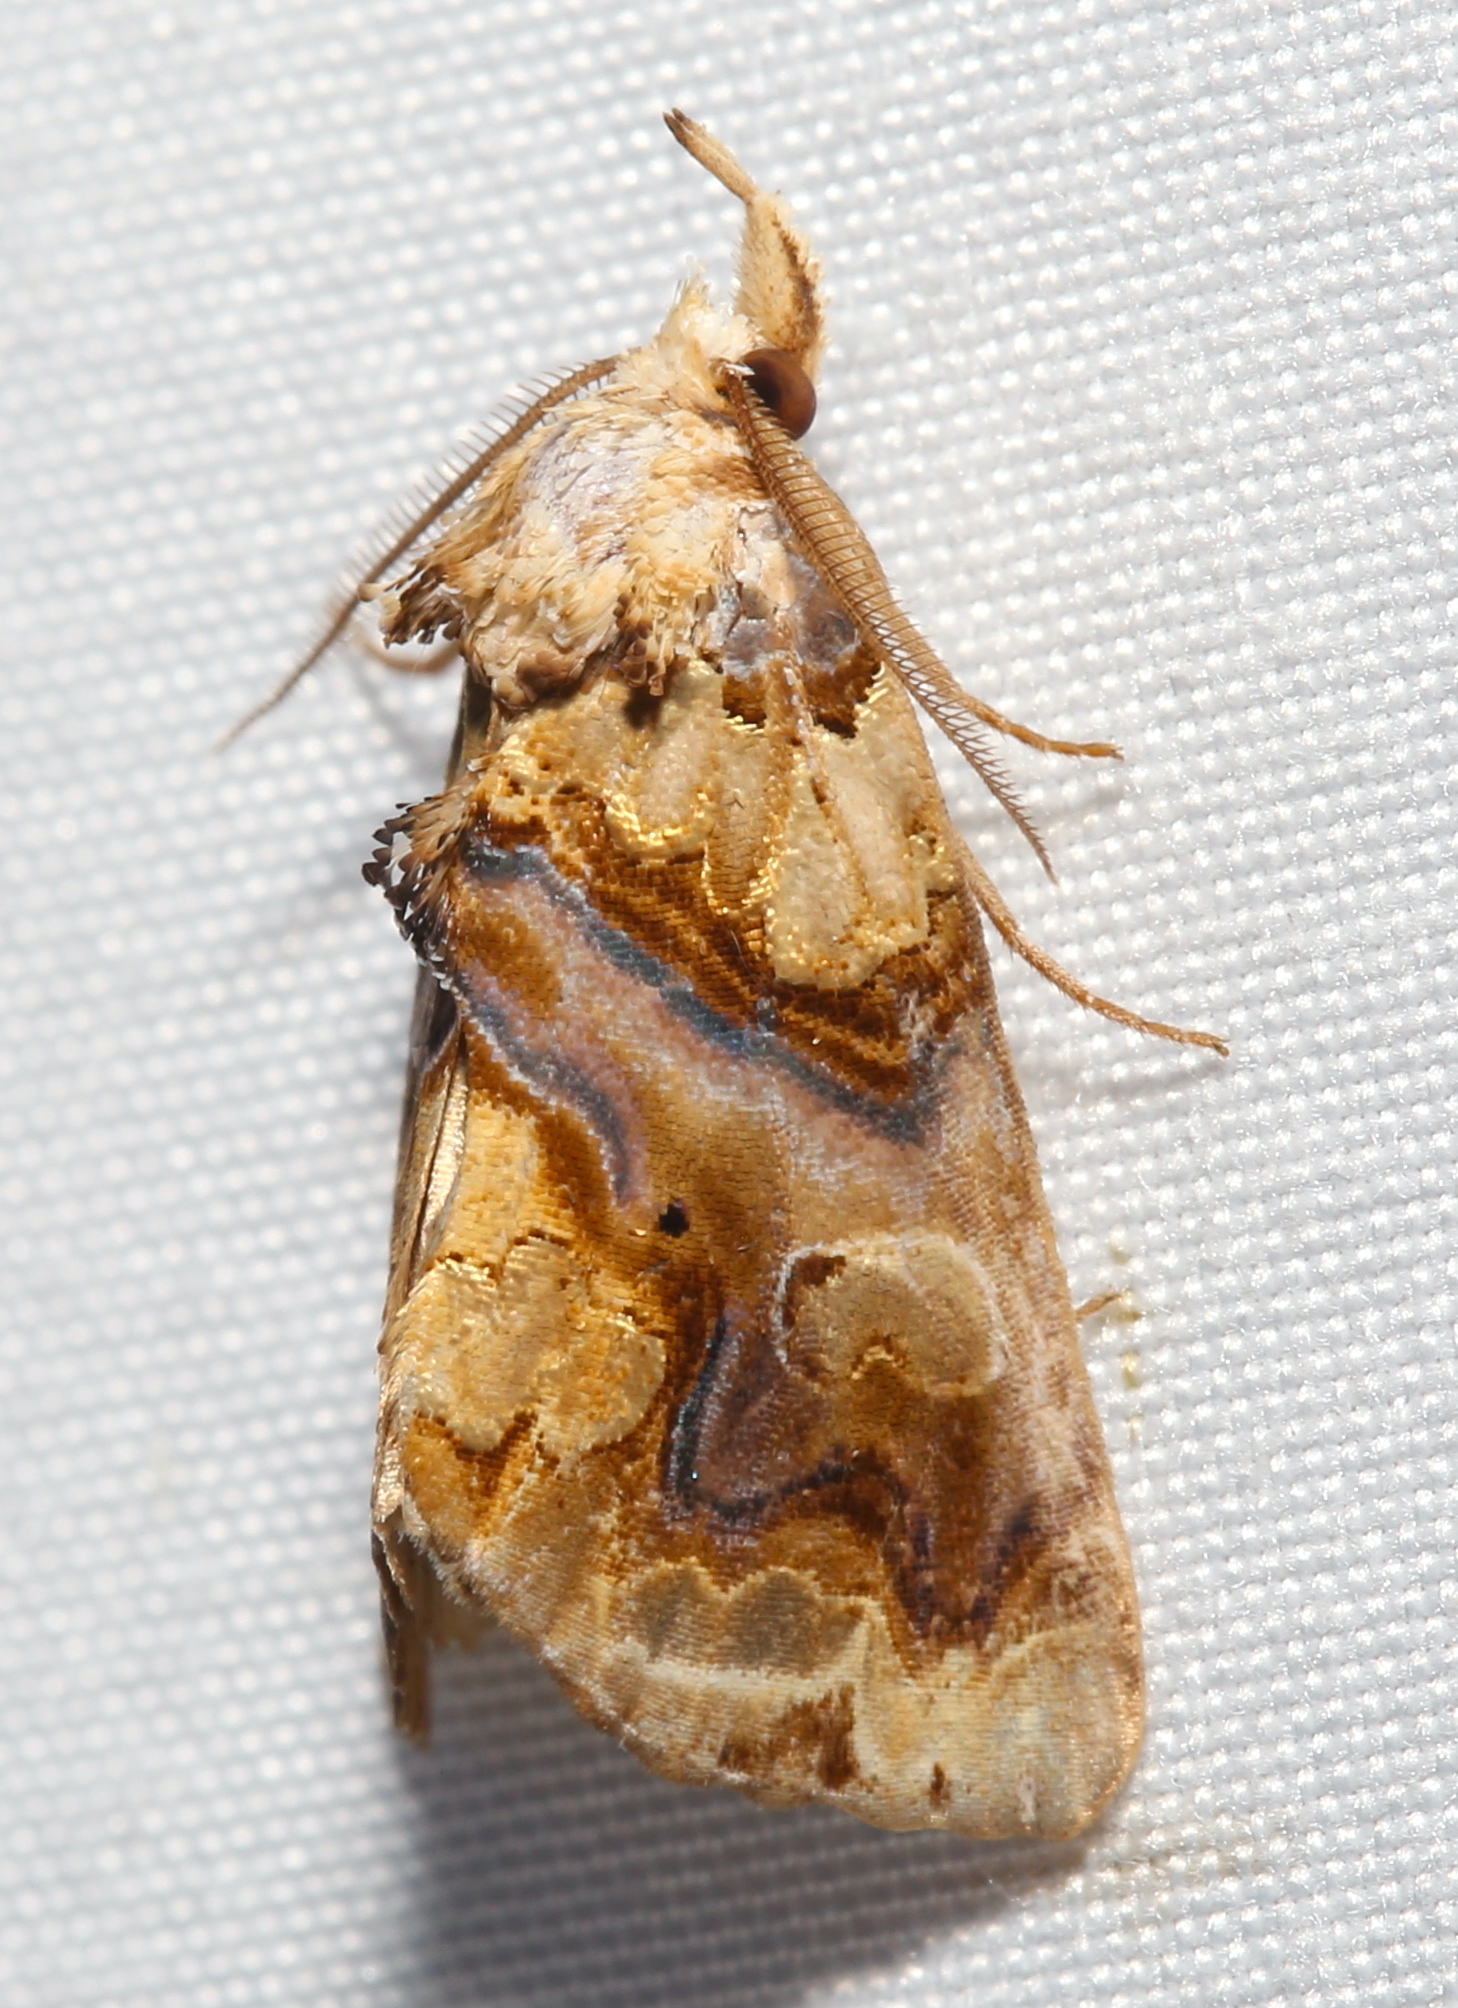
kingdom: Animalia
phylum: Arthropoda
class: Insecta
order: Lepidoptera
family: Erebidae
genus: Plusiodonta
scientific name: Plusiodonta compressipalpis
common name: Moonseed moth
